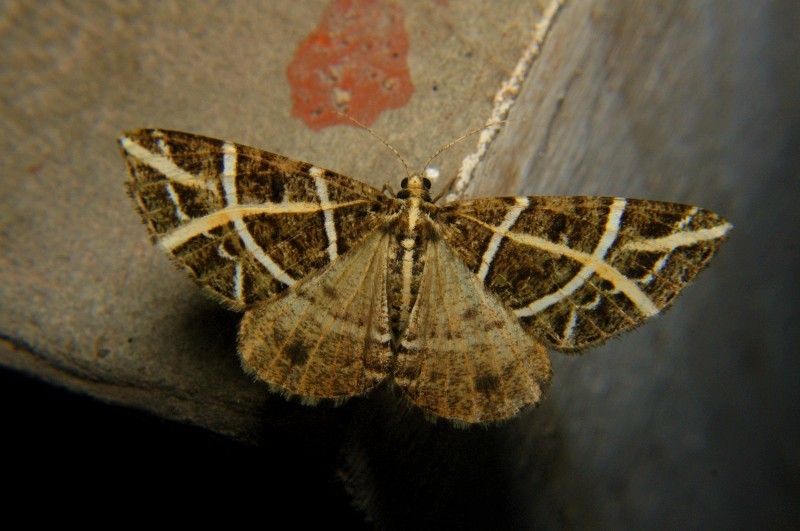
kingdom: Animalia
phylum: Arthropoda
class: Insecta
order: Lepidoptera
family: Geometridae
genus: Arichanna
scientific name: Arichanna transfasciata
